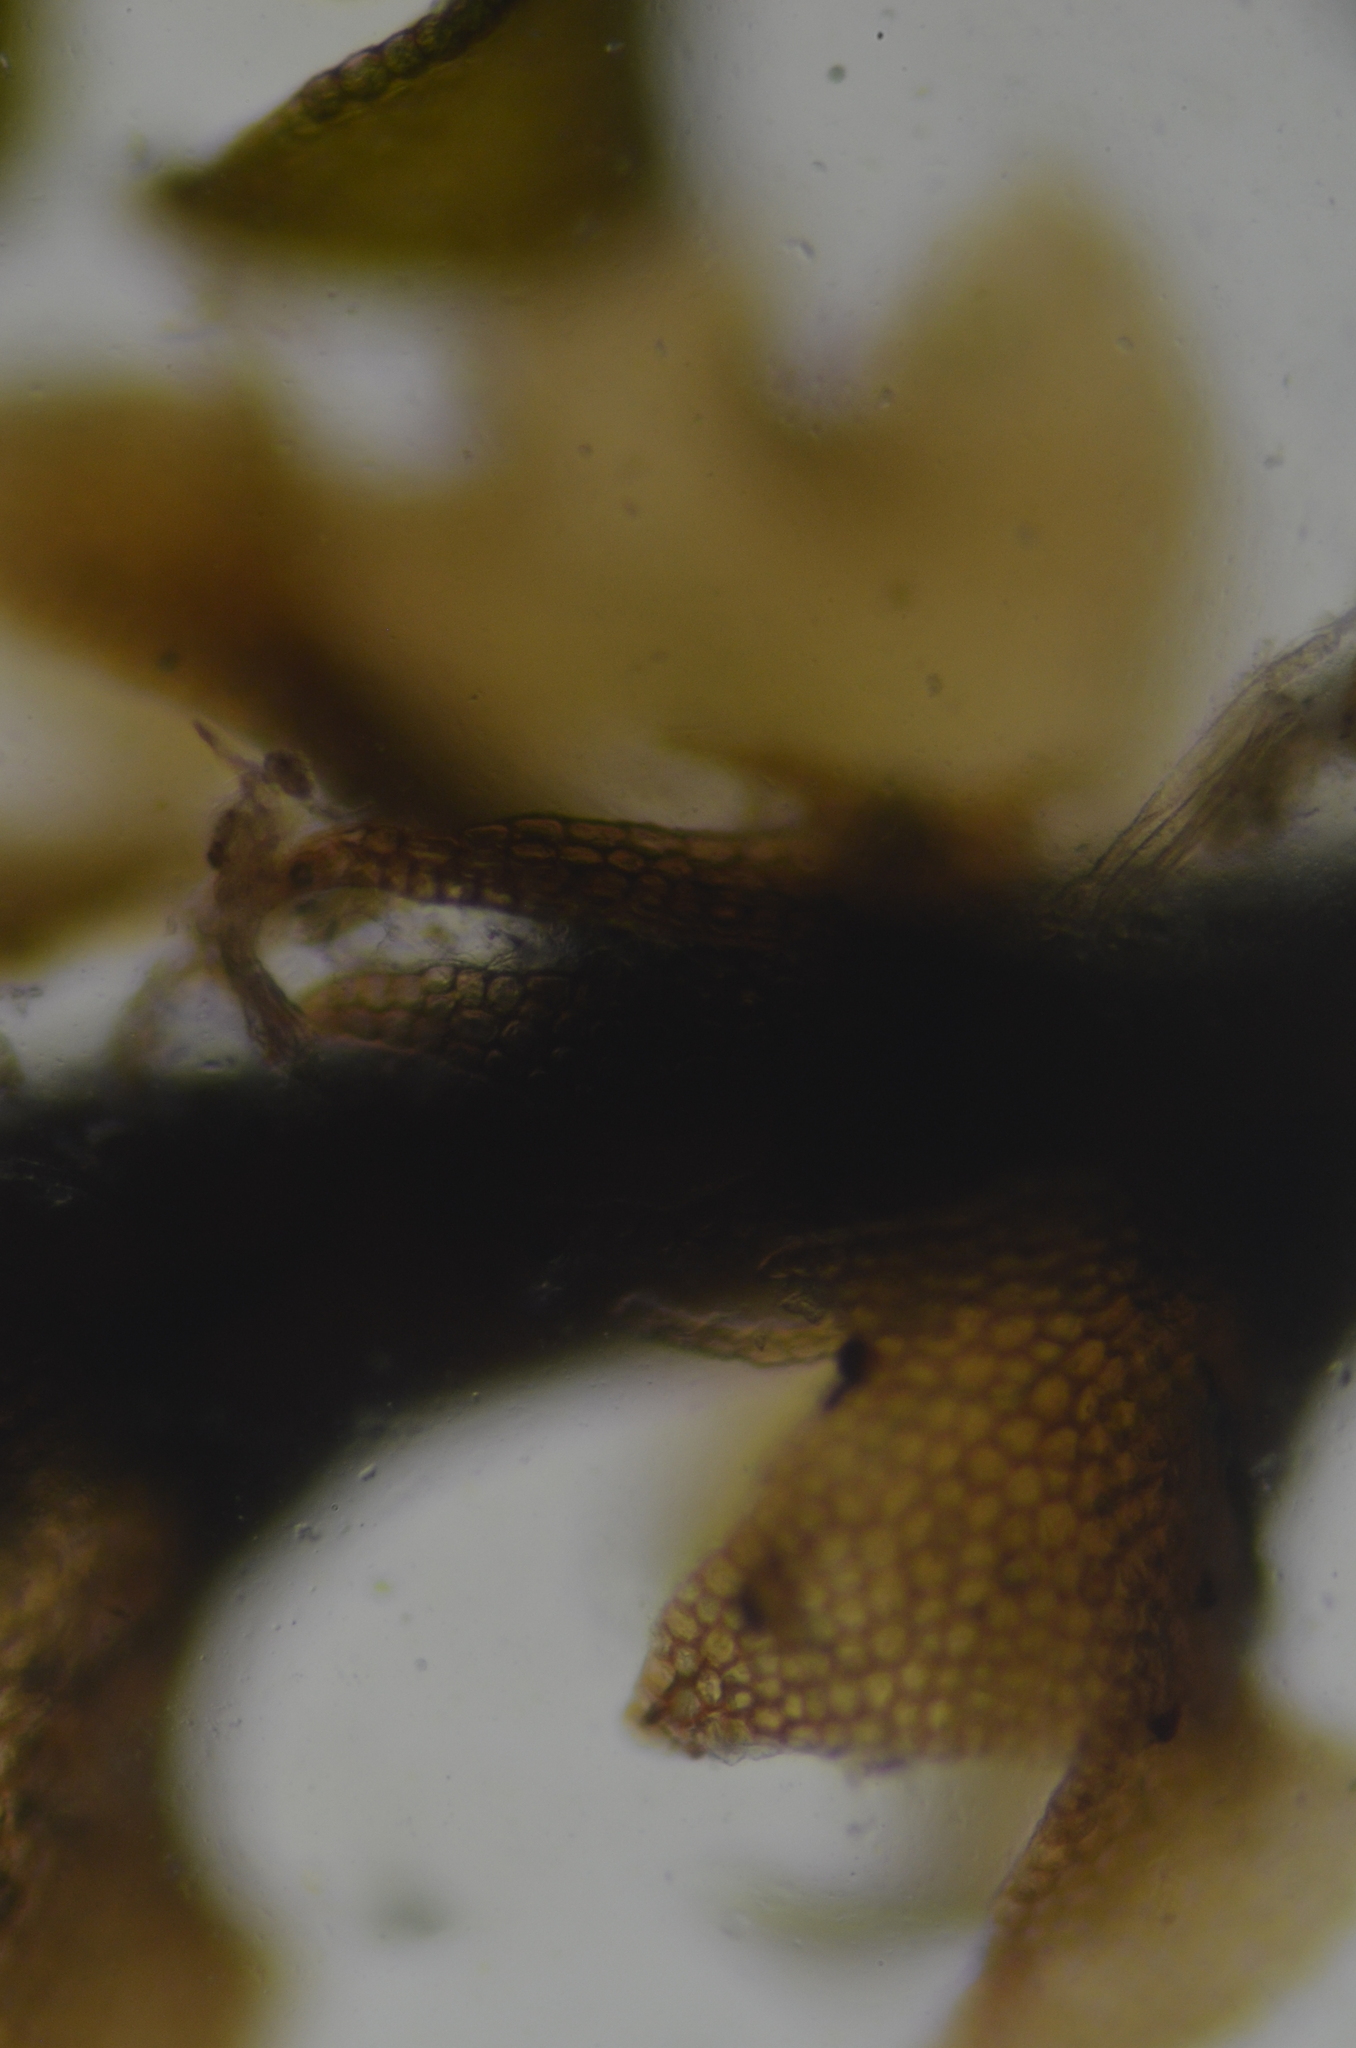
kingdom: Plantae
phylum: Marchantiophyta
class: Jungermanniopsida
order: Jungermanniales
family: Anastrophyllaceae
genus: Schljakovianthus
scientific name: Schljakovianthus quadrilobus
